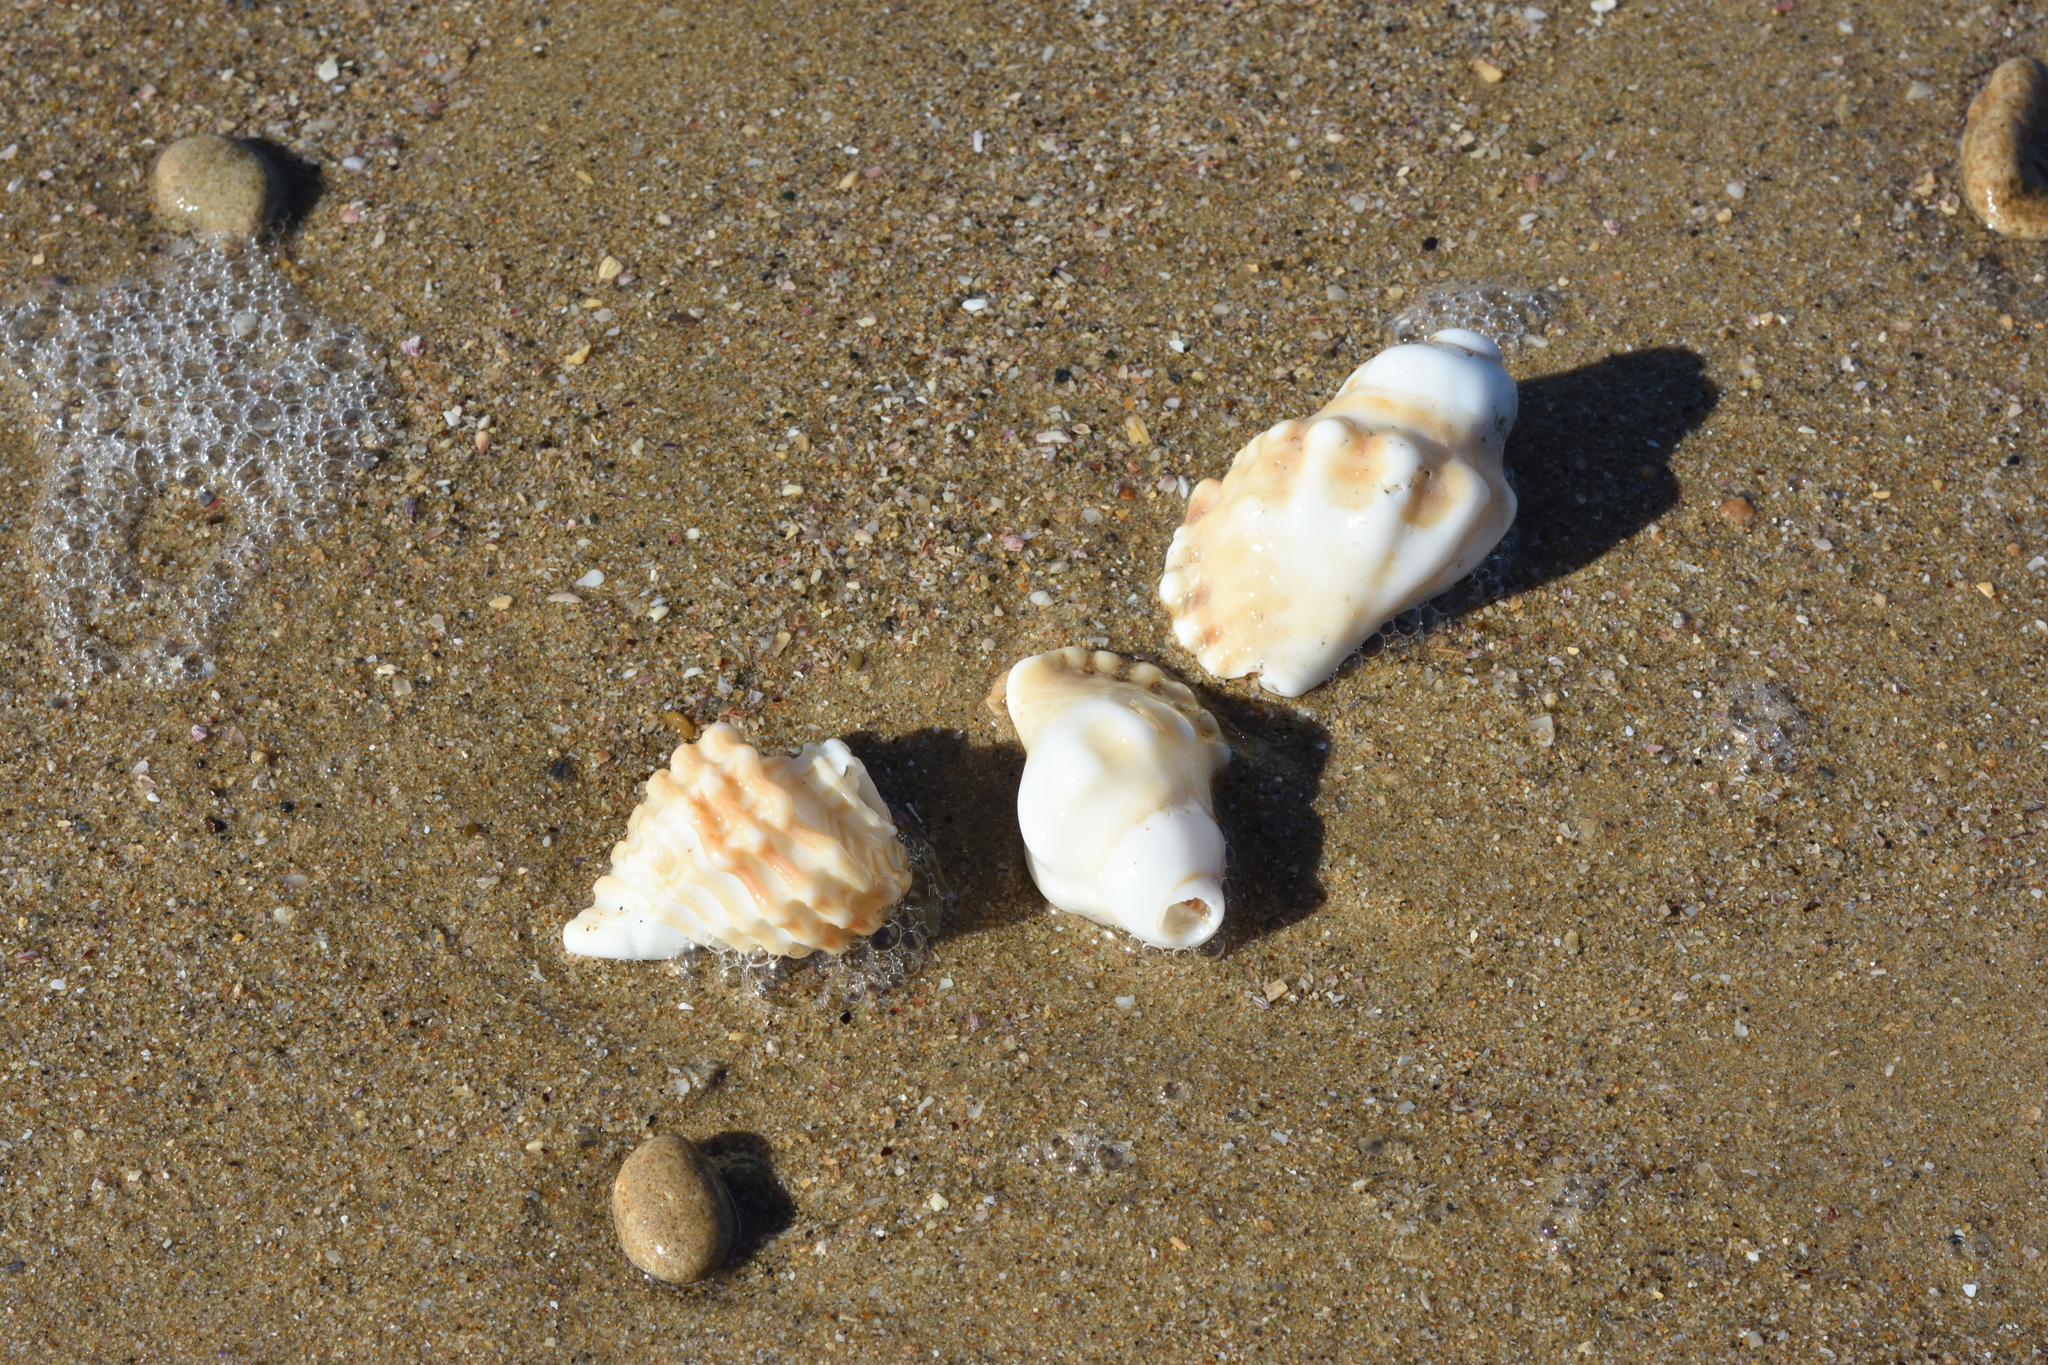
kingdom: Animalia
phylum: Mollusca
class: Gastropoda
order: Littorinimorpha
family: Cymatiidae
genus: Cabestana
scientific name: Cabestana africana
